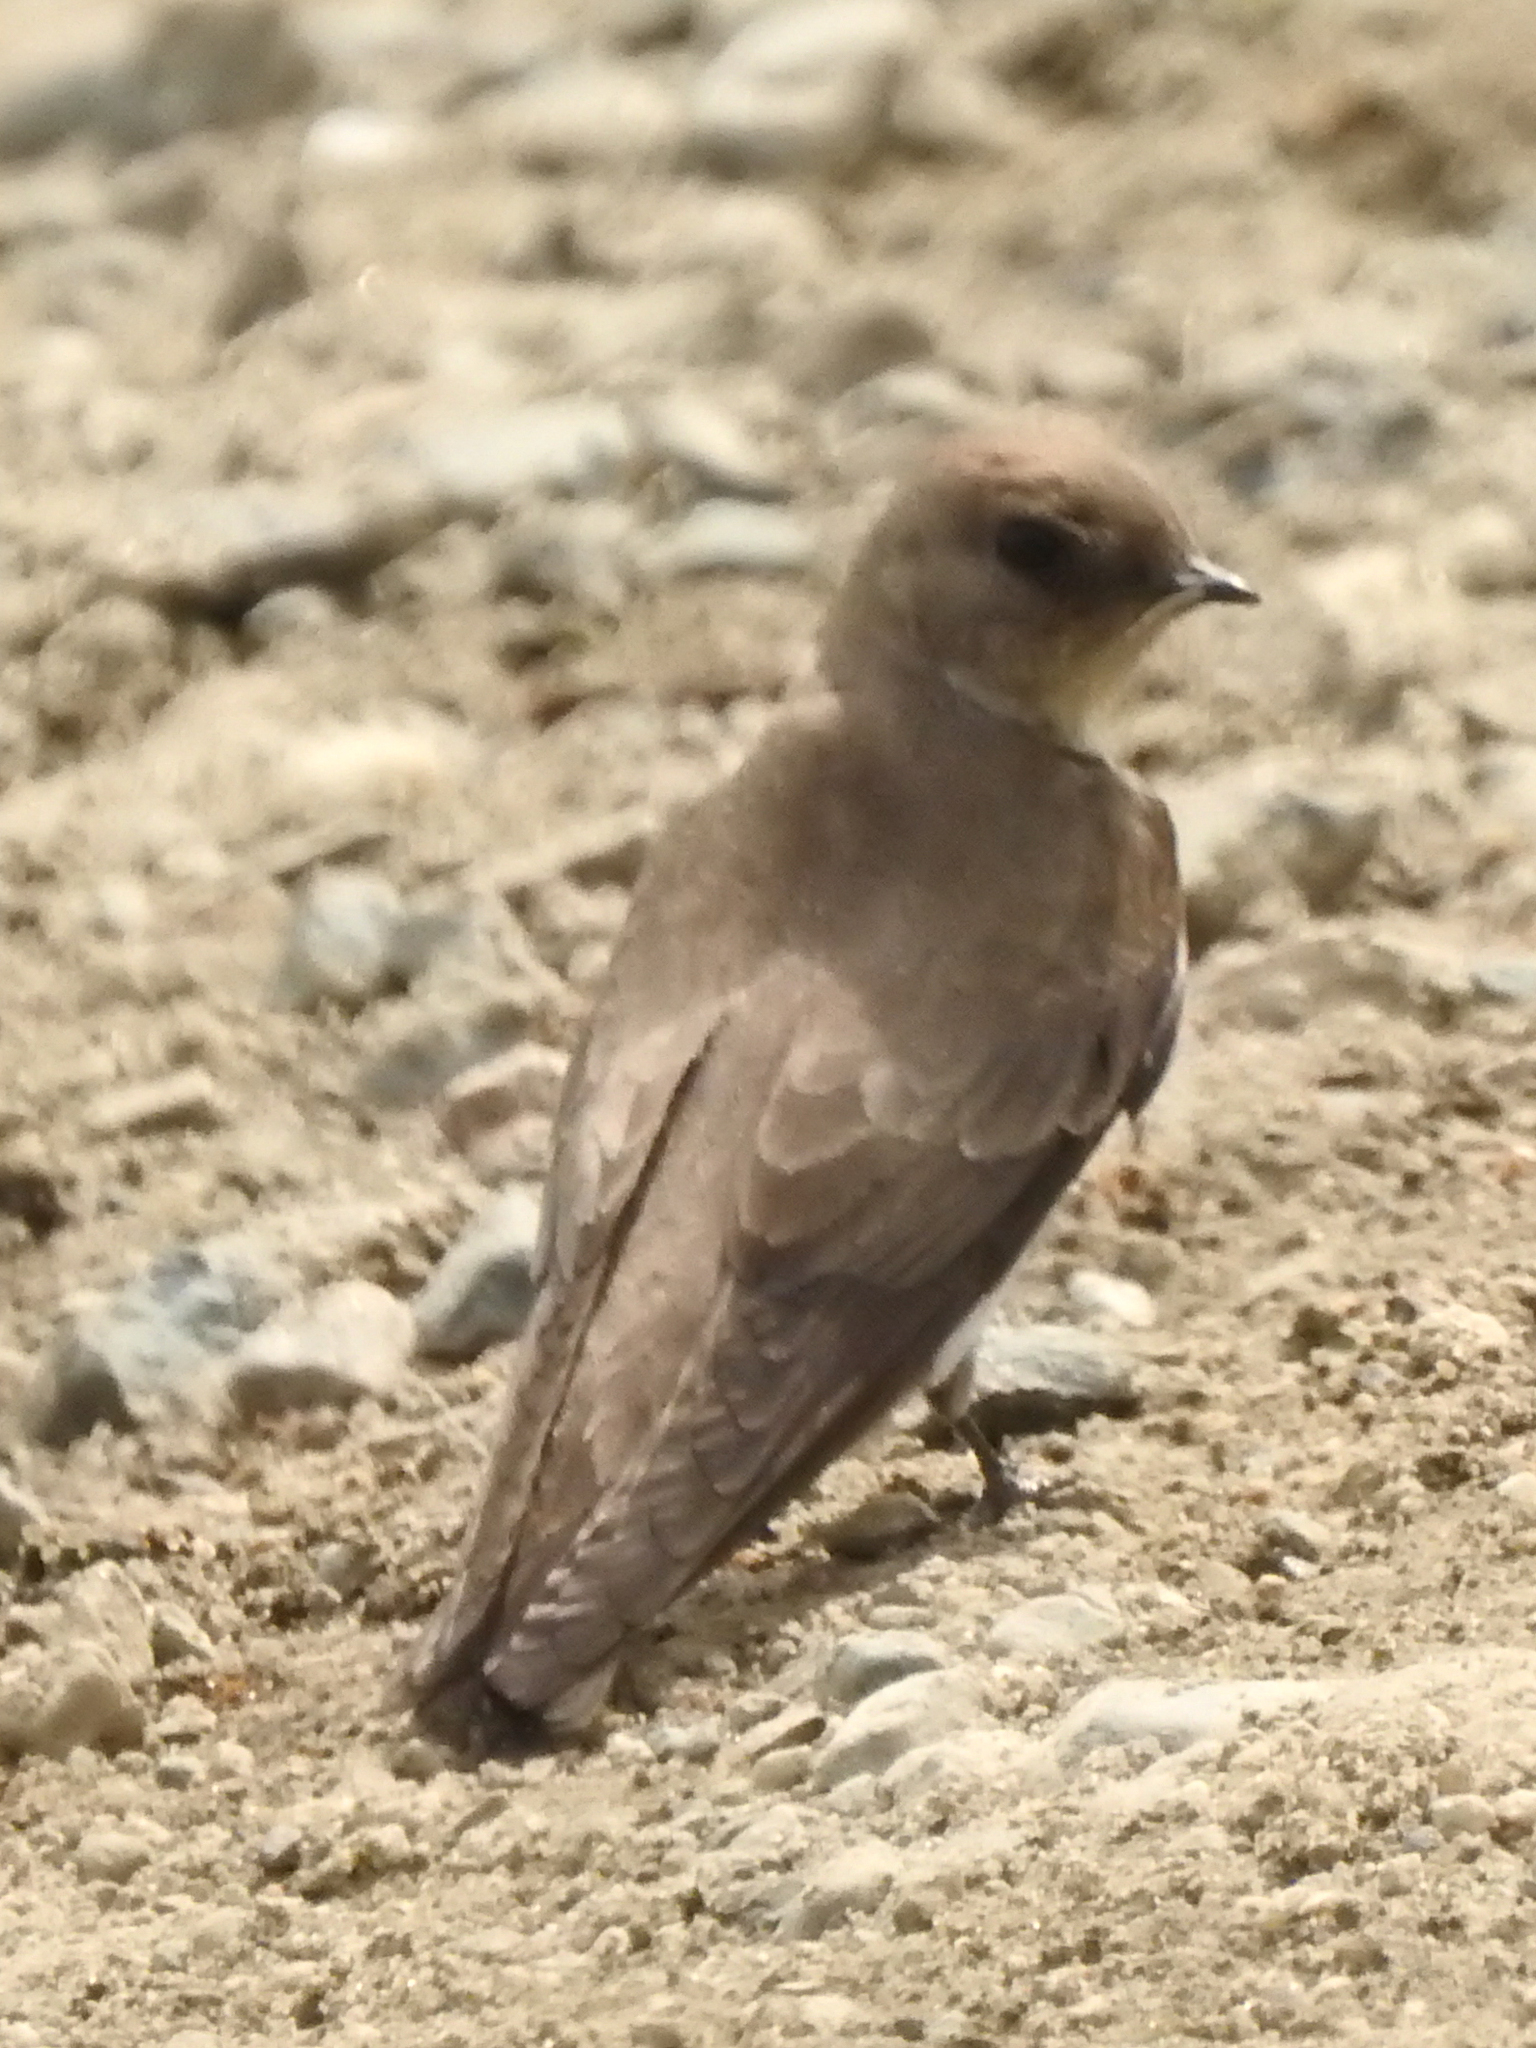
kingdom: Animalia
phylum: Chordata
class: Aves
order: Passeriformes
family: Hirundinidae
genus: Stelgidopteryx
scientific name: Stelgidopteryx serripennis
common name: Northern rough-winged swallow
